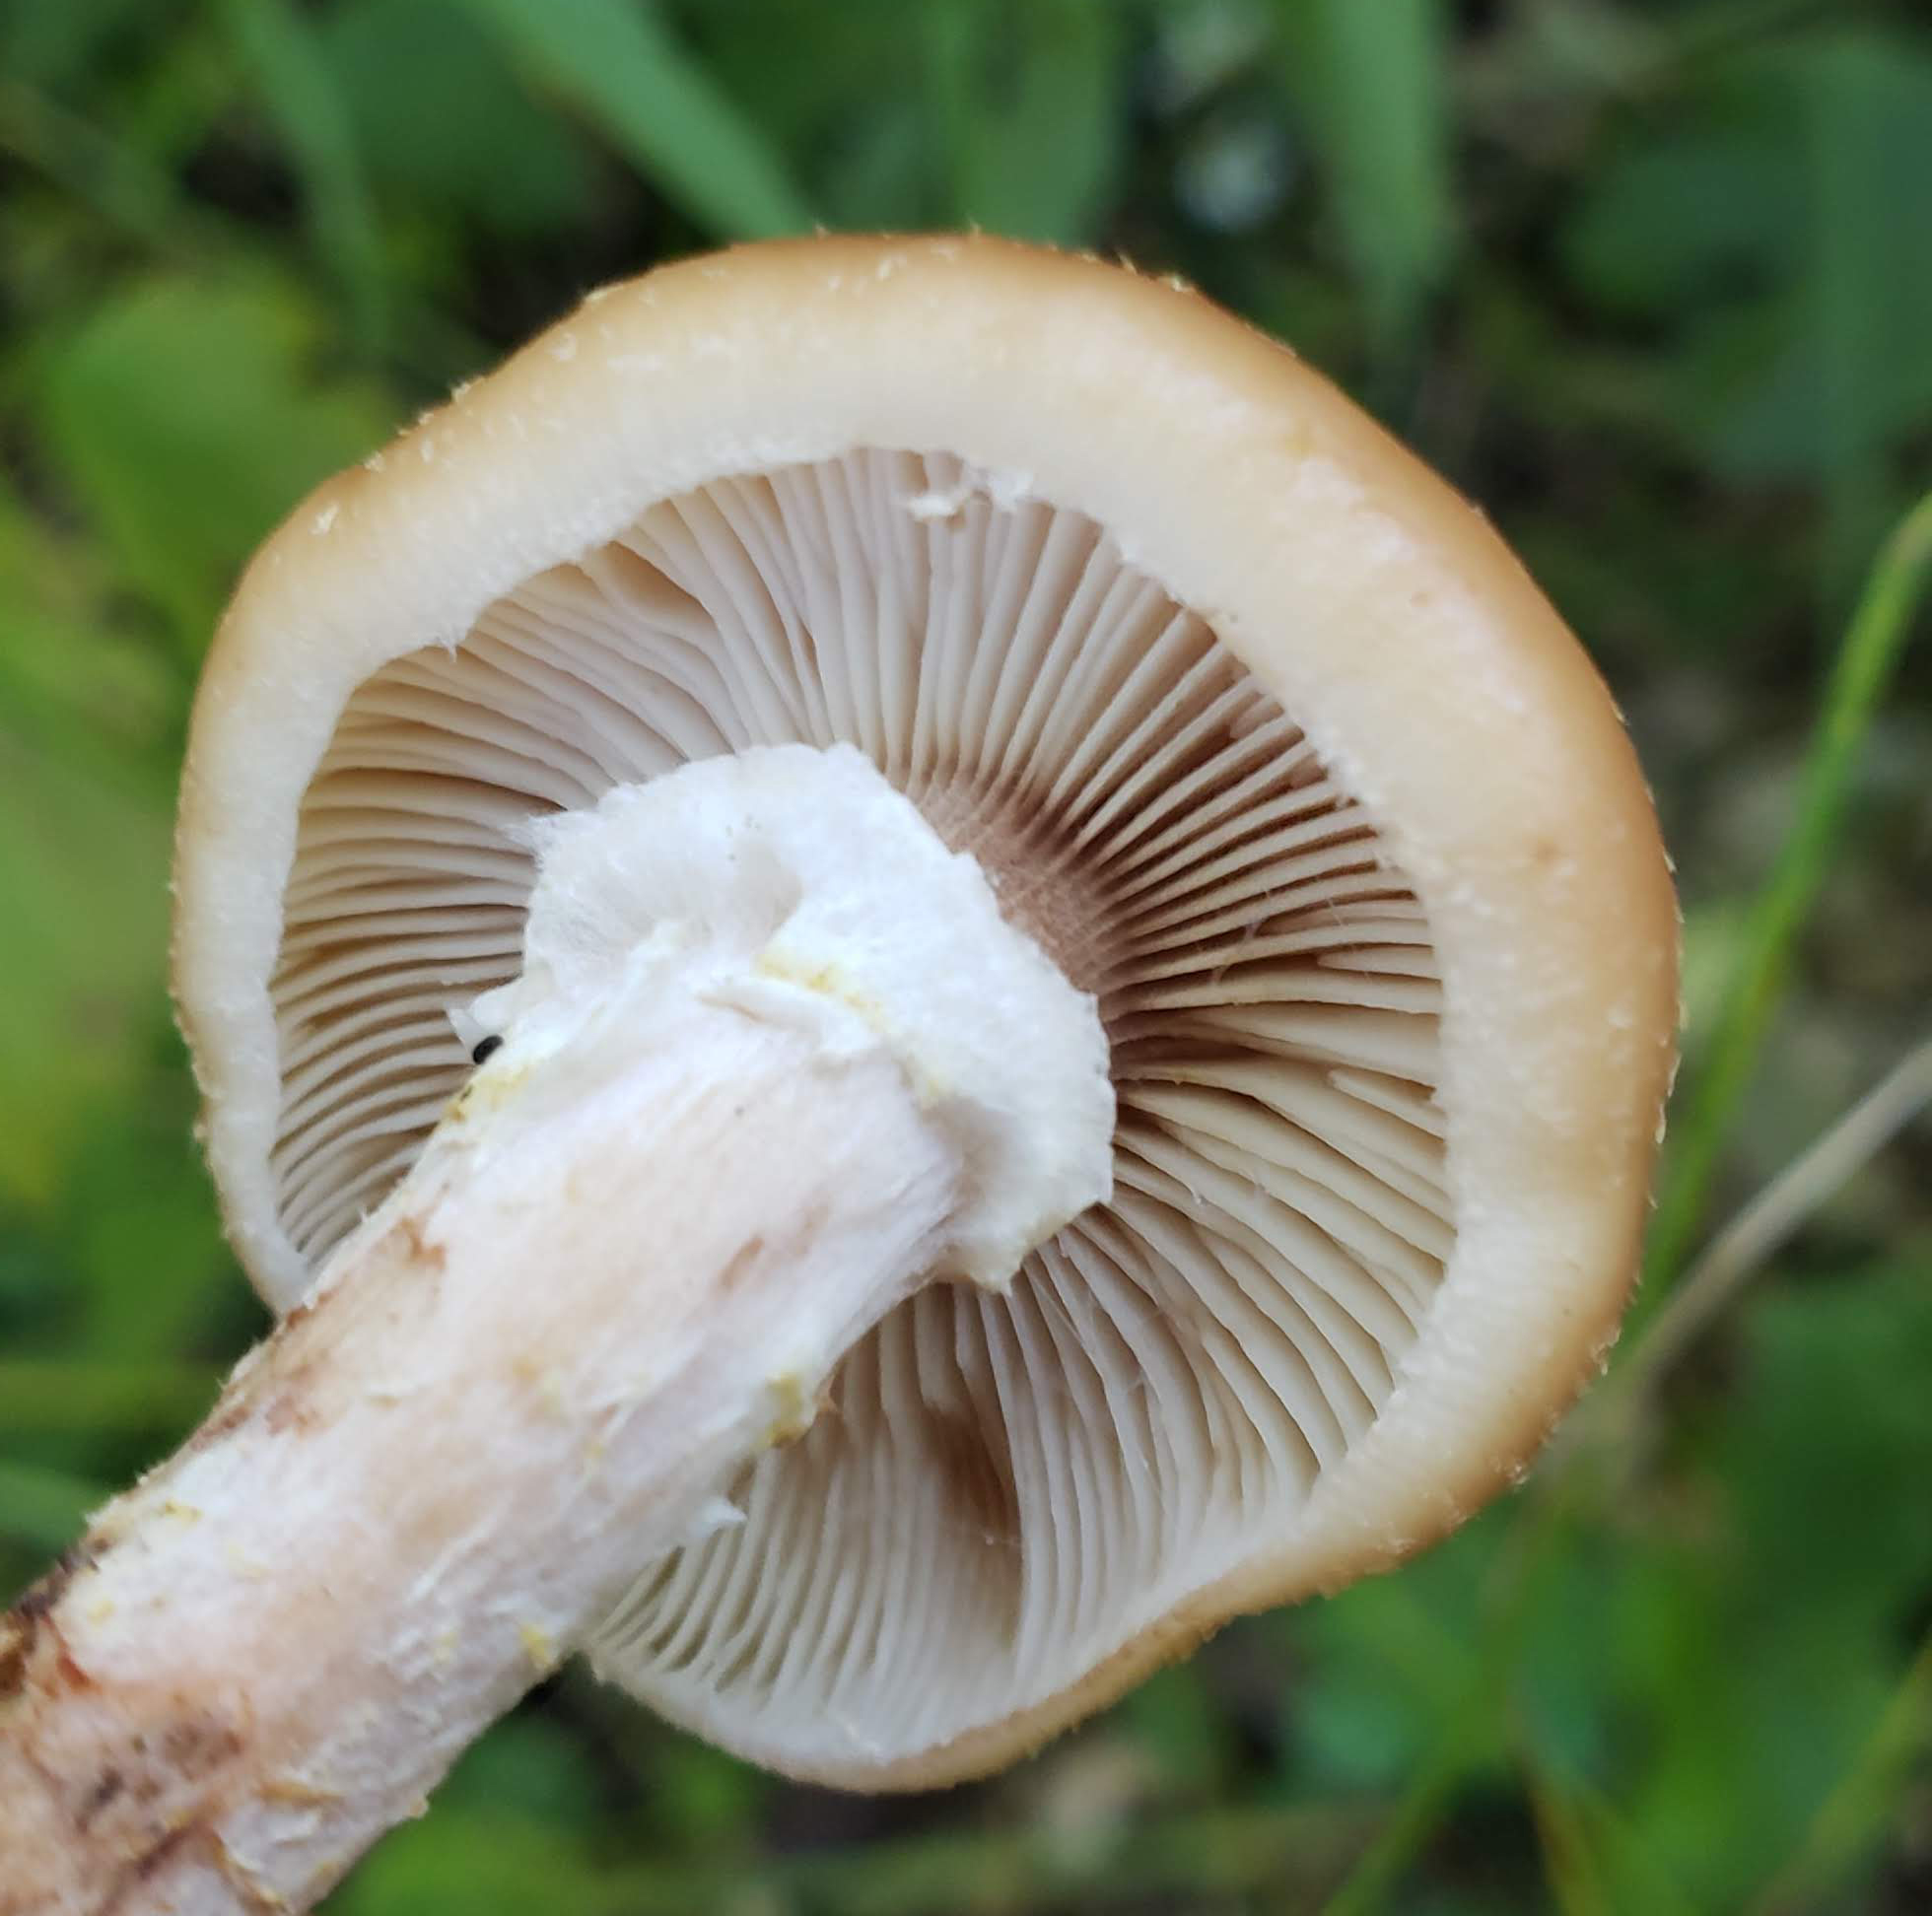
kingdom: Fungi
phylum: Basidiomycota
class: Agaricomycetes
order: Agaricales
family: Physalacriaceae
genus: Armillaria
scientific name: Armillaria gallica
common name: Bulbous honey fungus
